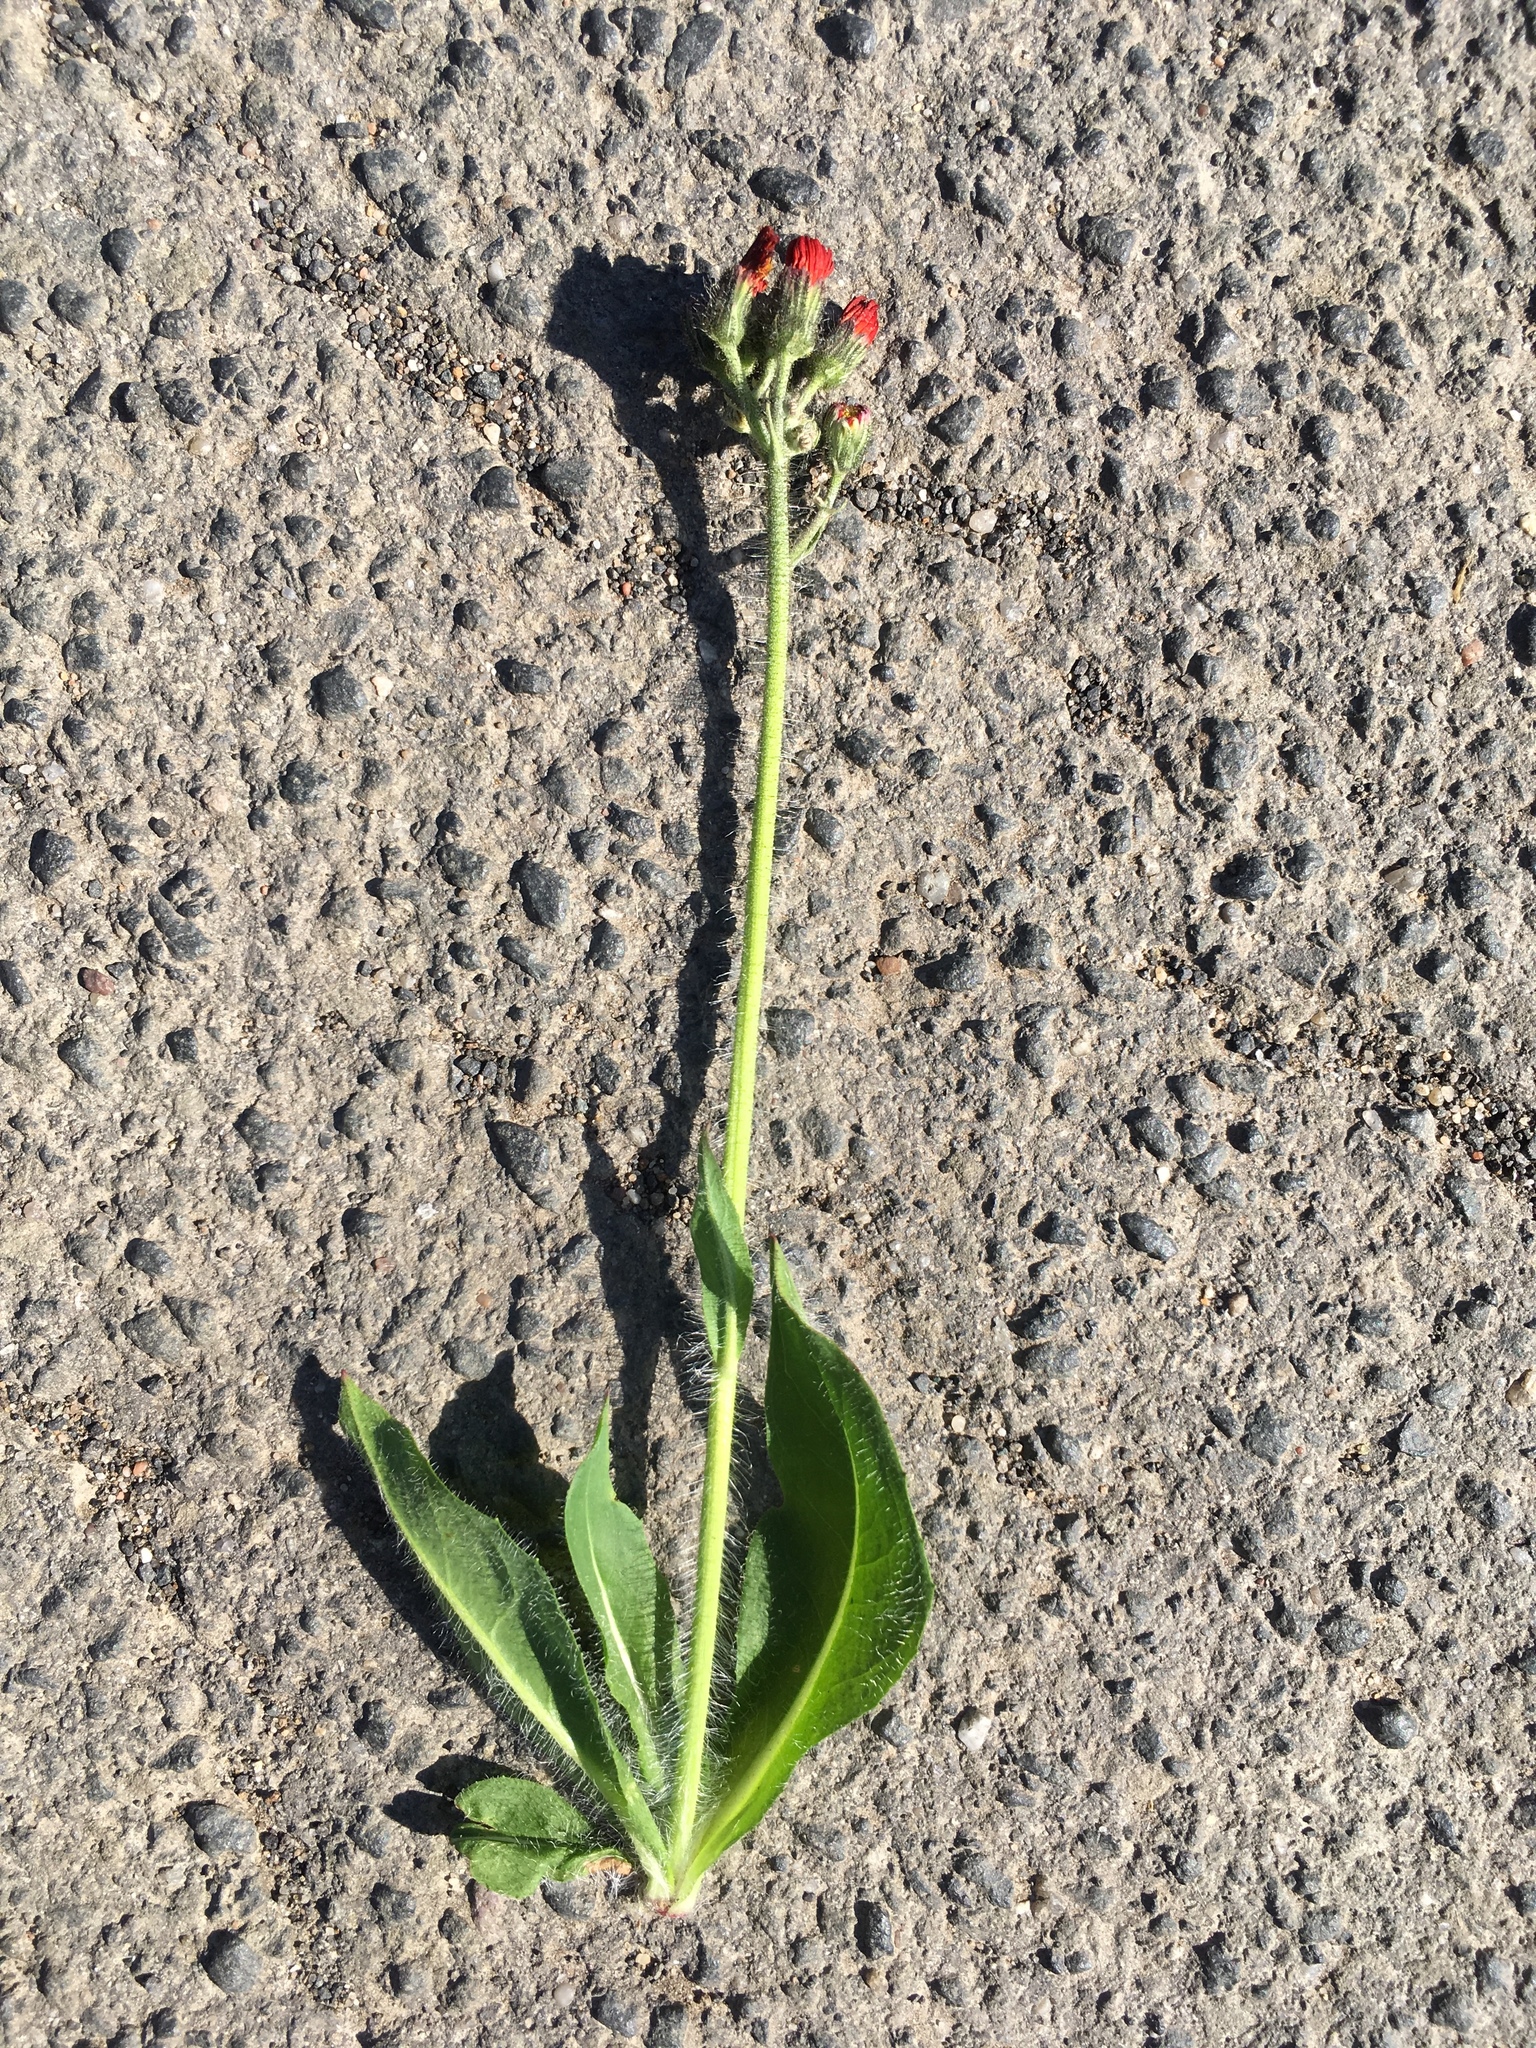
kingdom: Plantae
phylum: Tracheophyta
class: Magnoliopsida
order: Asterales
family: Asteraceae
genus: Pilosella
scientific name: Pilosella aurantiaca
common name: Fox-and-cubs
